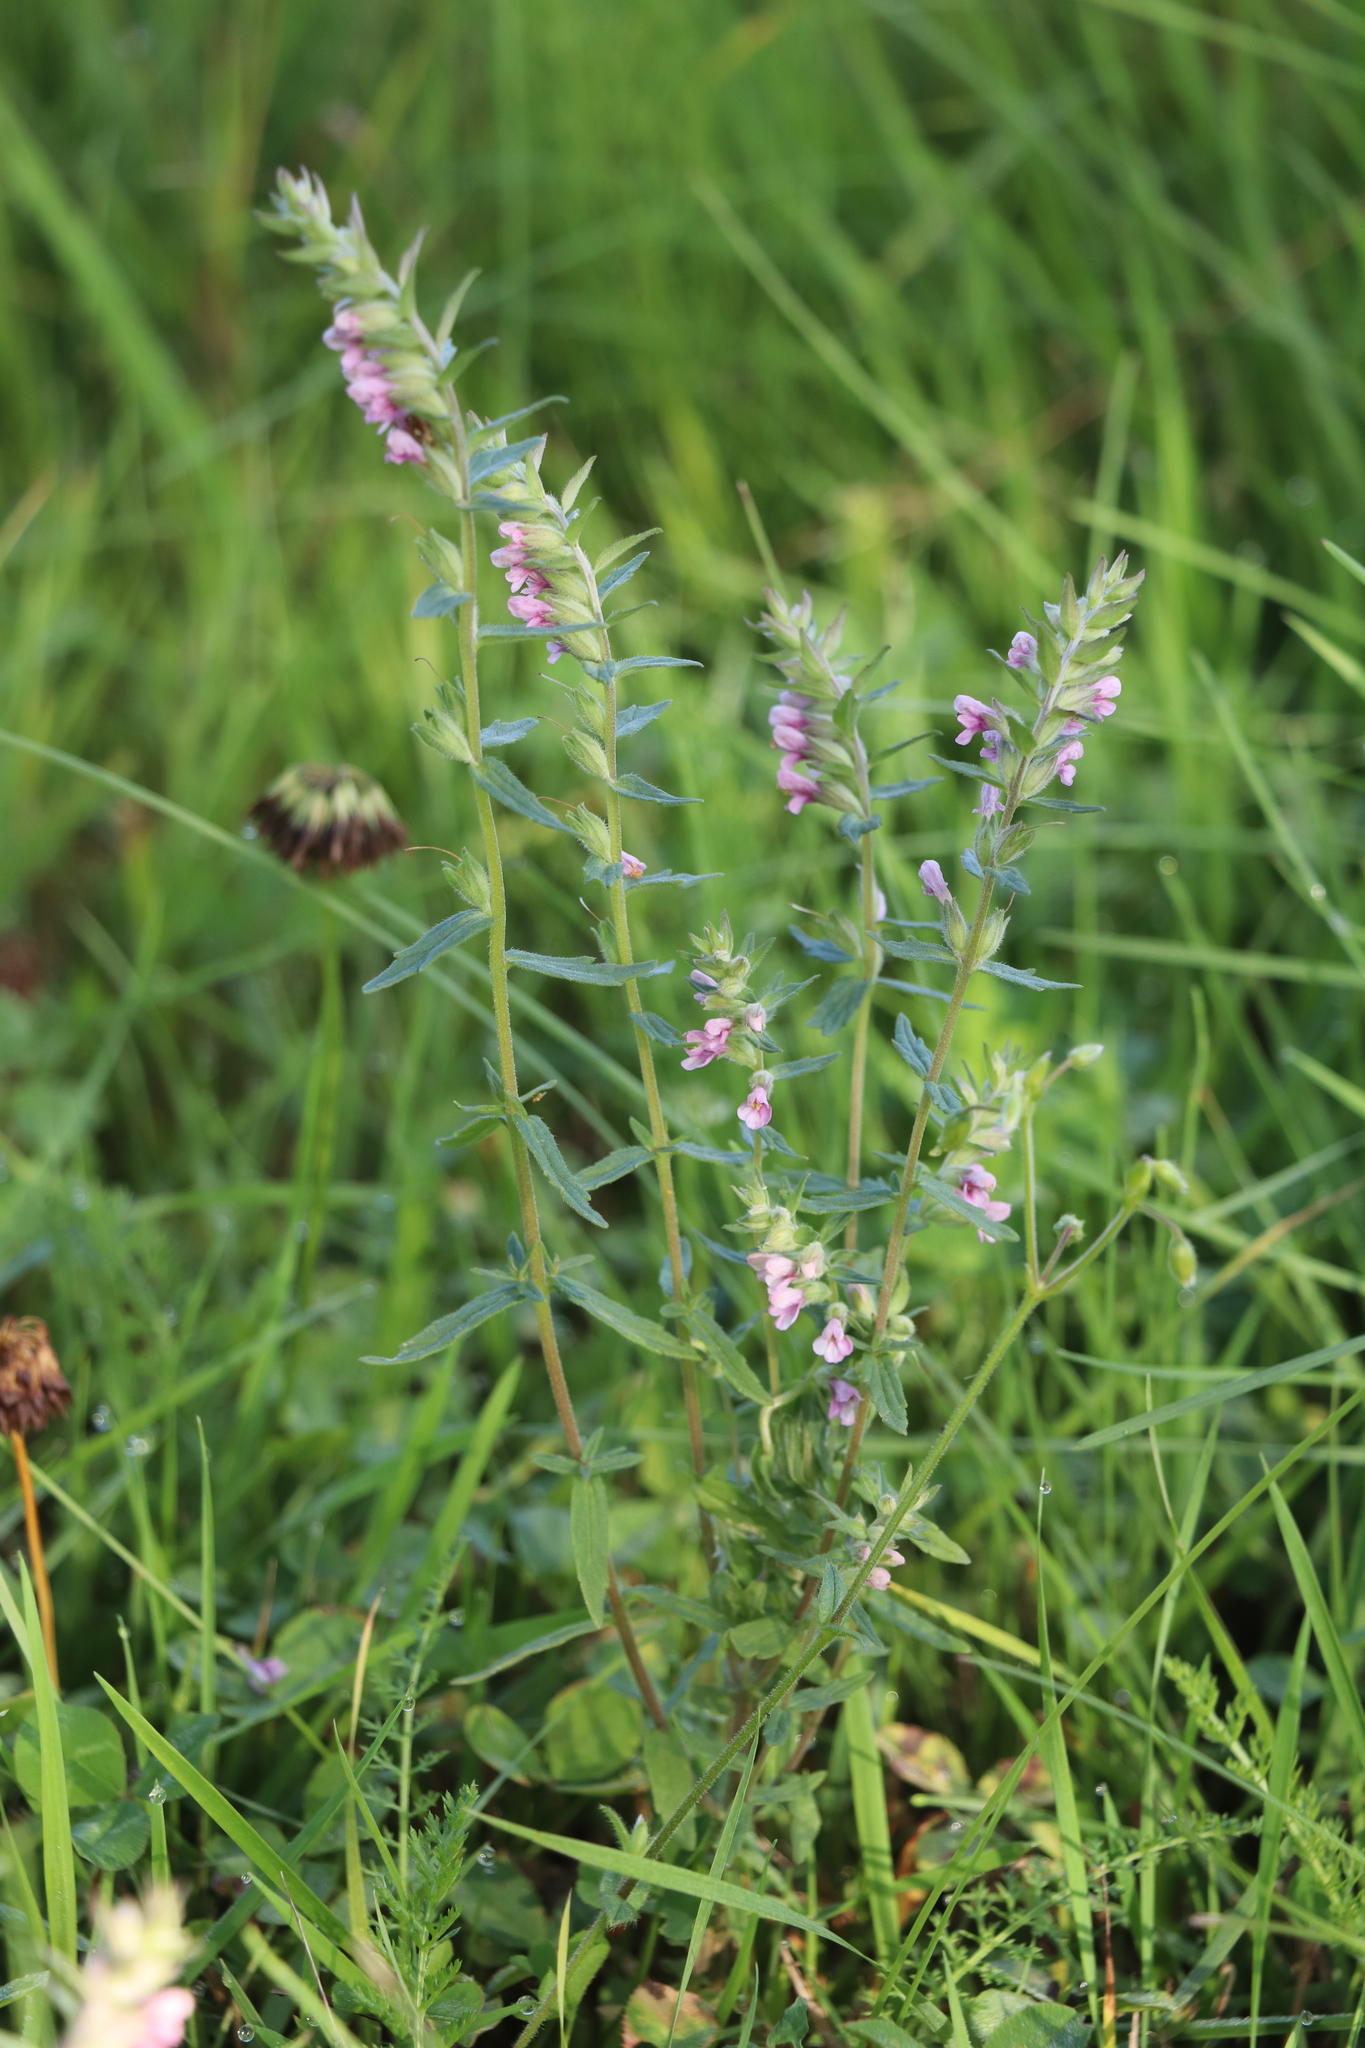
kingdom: Plantae
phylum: Tracheophyta
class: Magnoliopsida
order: Lamiales
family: Orobanchaceae
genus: Odontites
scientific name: Odontites vulgaris
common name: Broomrape
